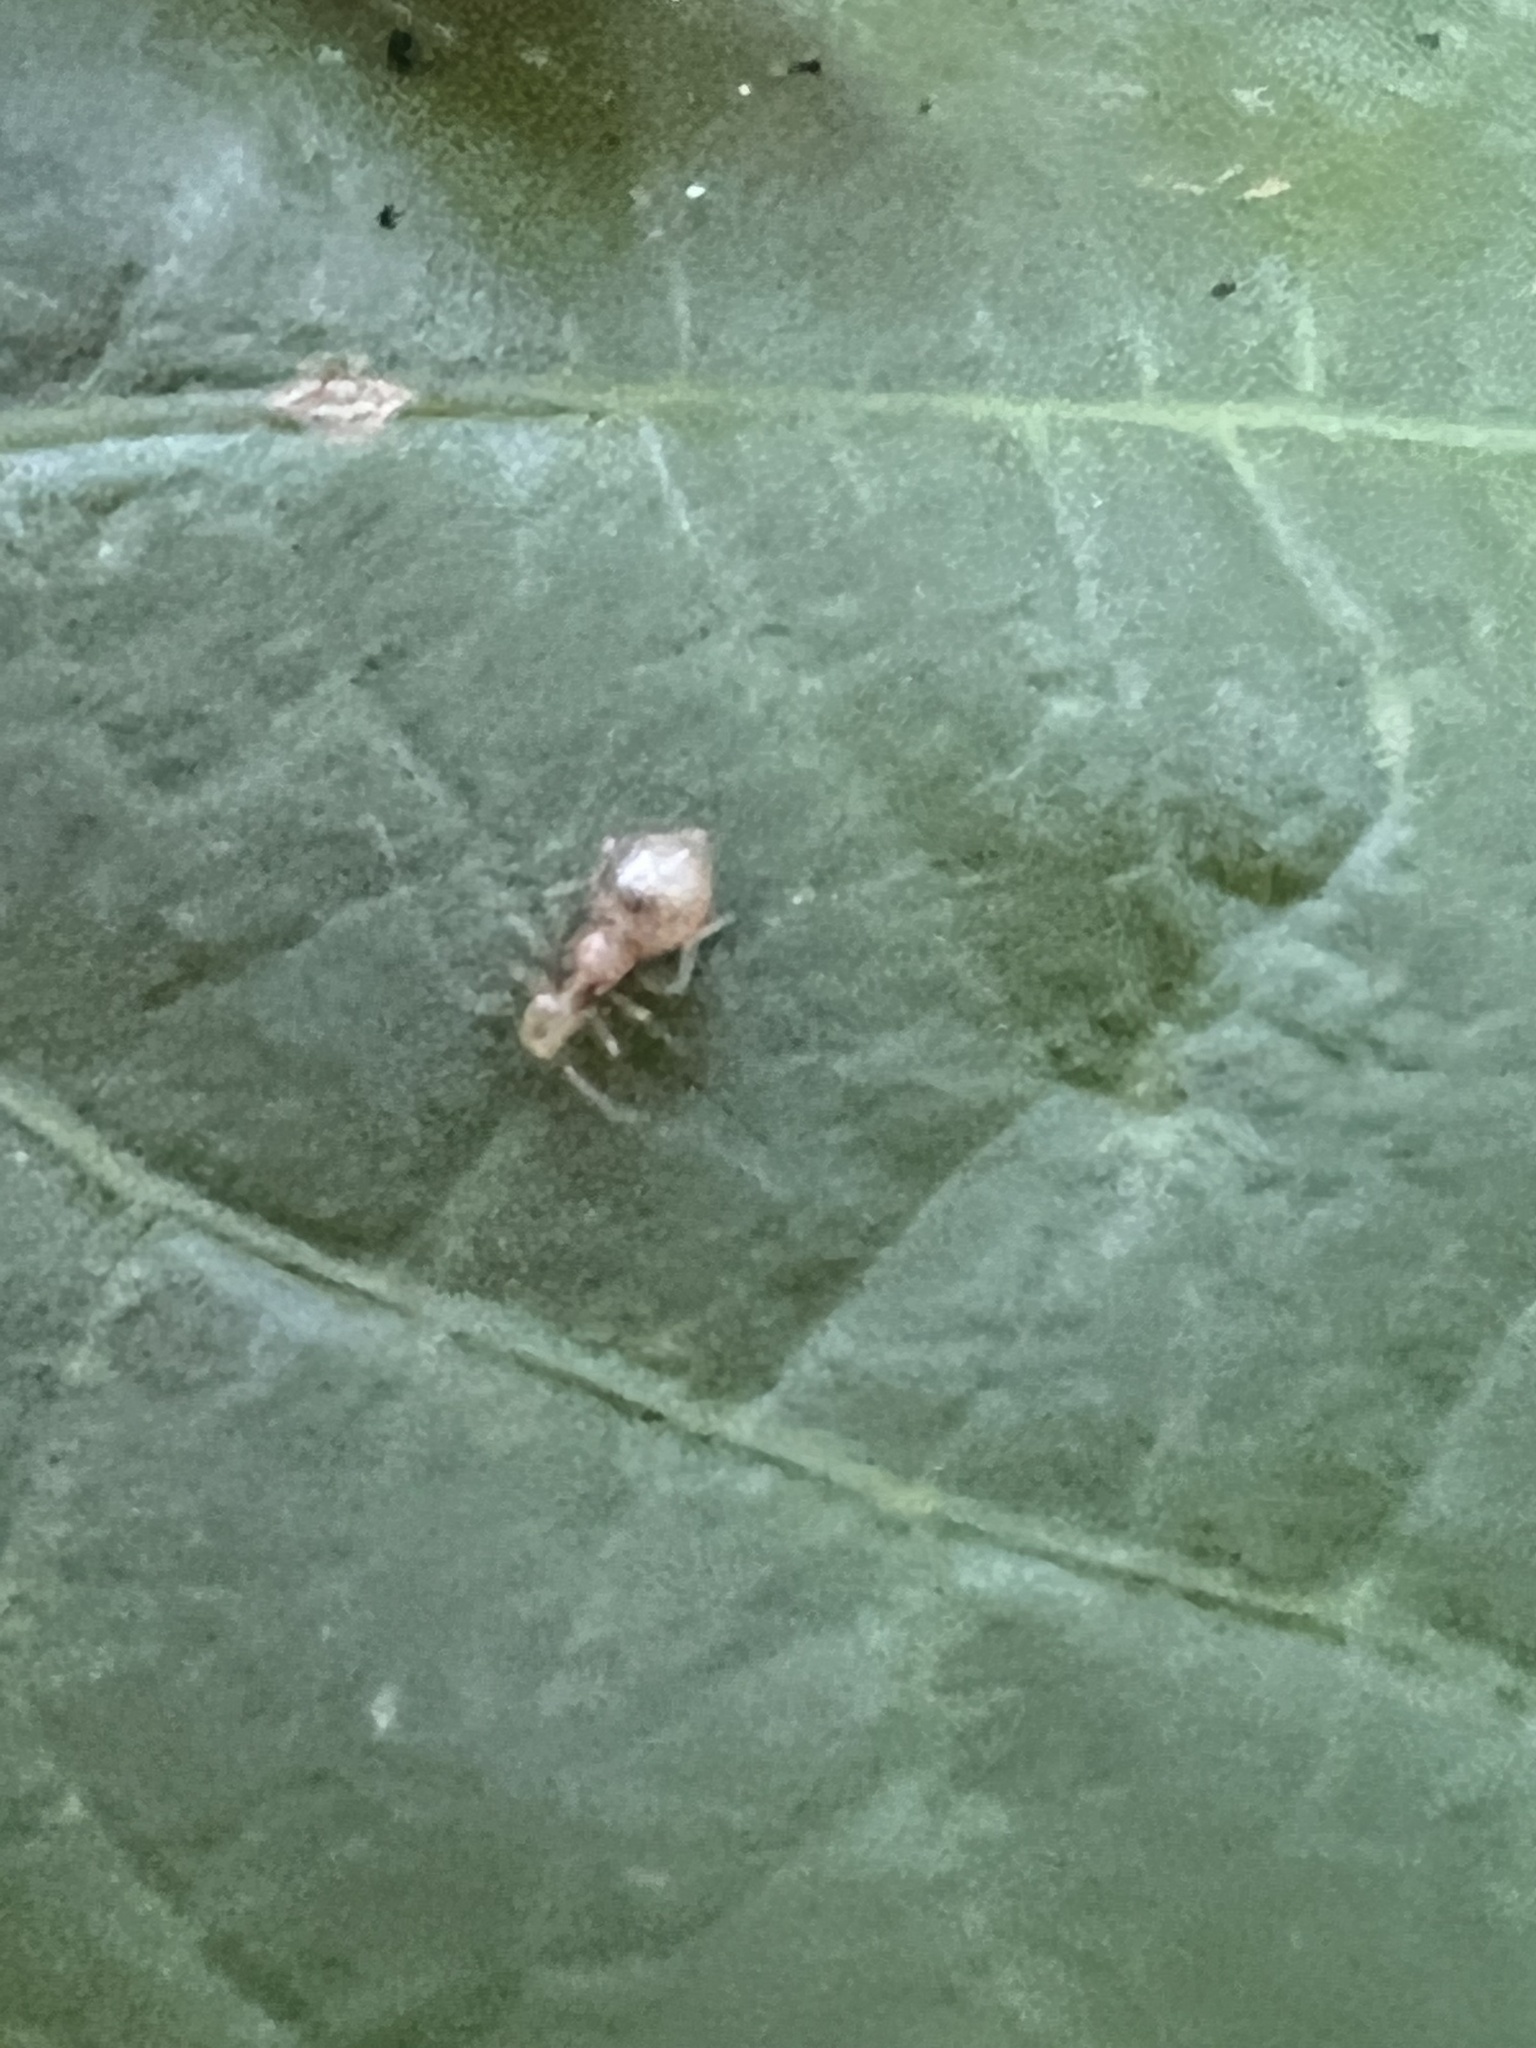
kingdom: Animalia
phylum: Arthropoda
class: Insecta
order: Psocodea
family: Amphipsocidae
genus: Polypsocus
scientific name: Polypsocus corruptus
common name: Corrupt barklouse
